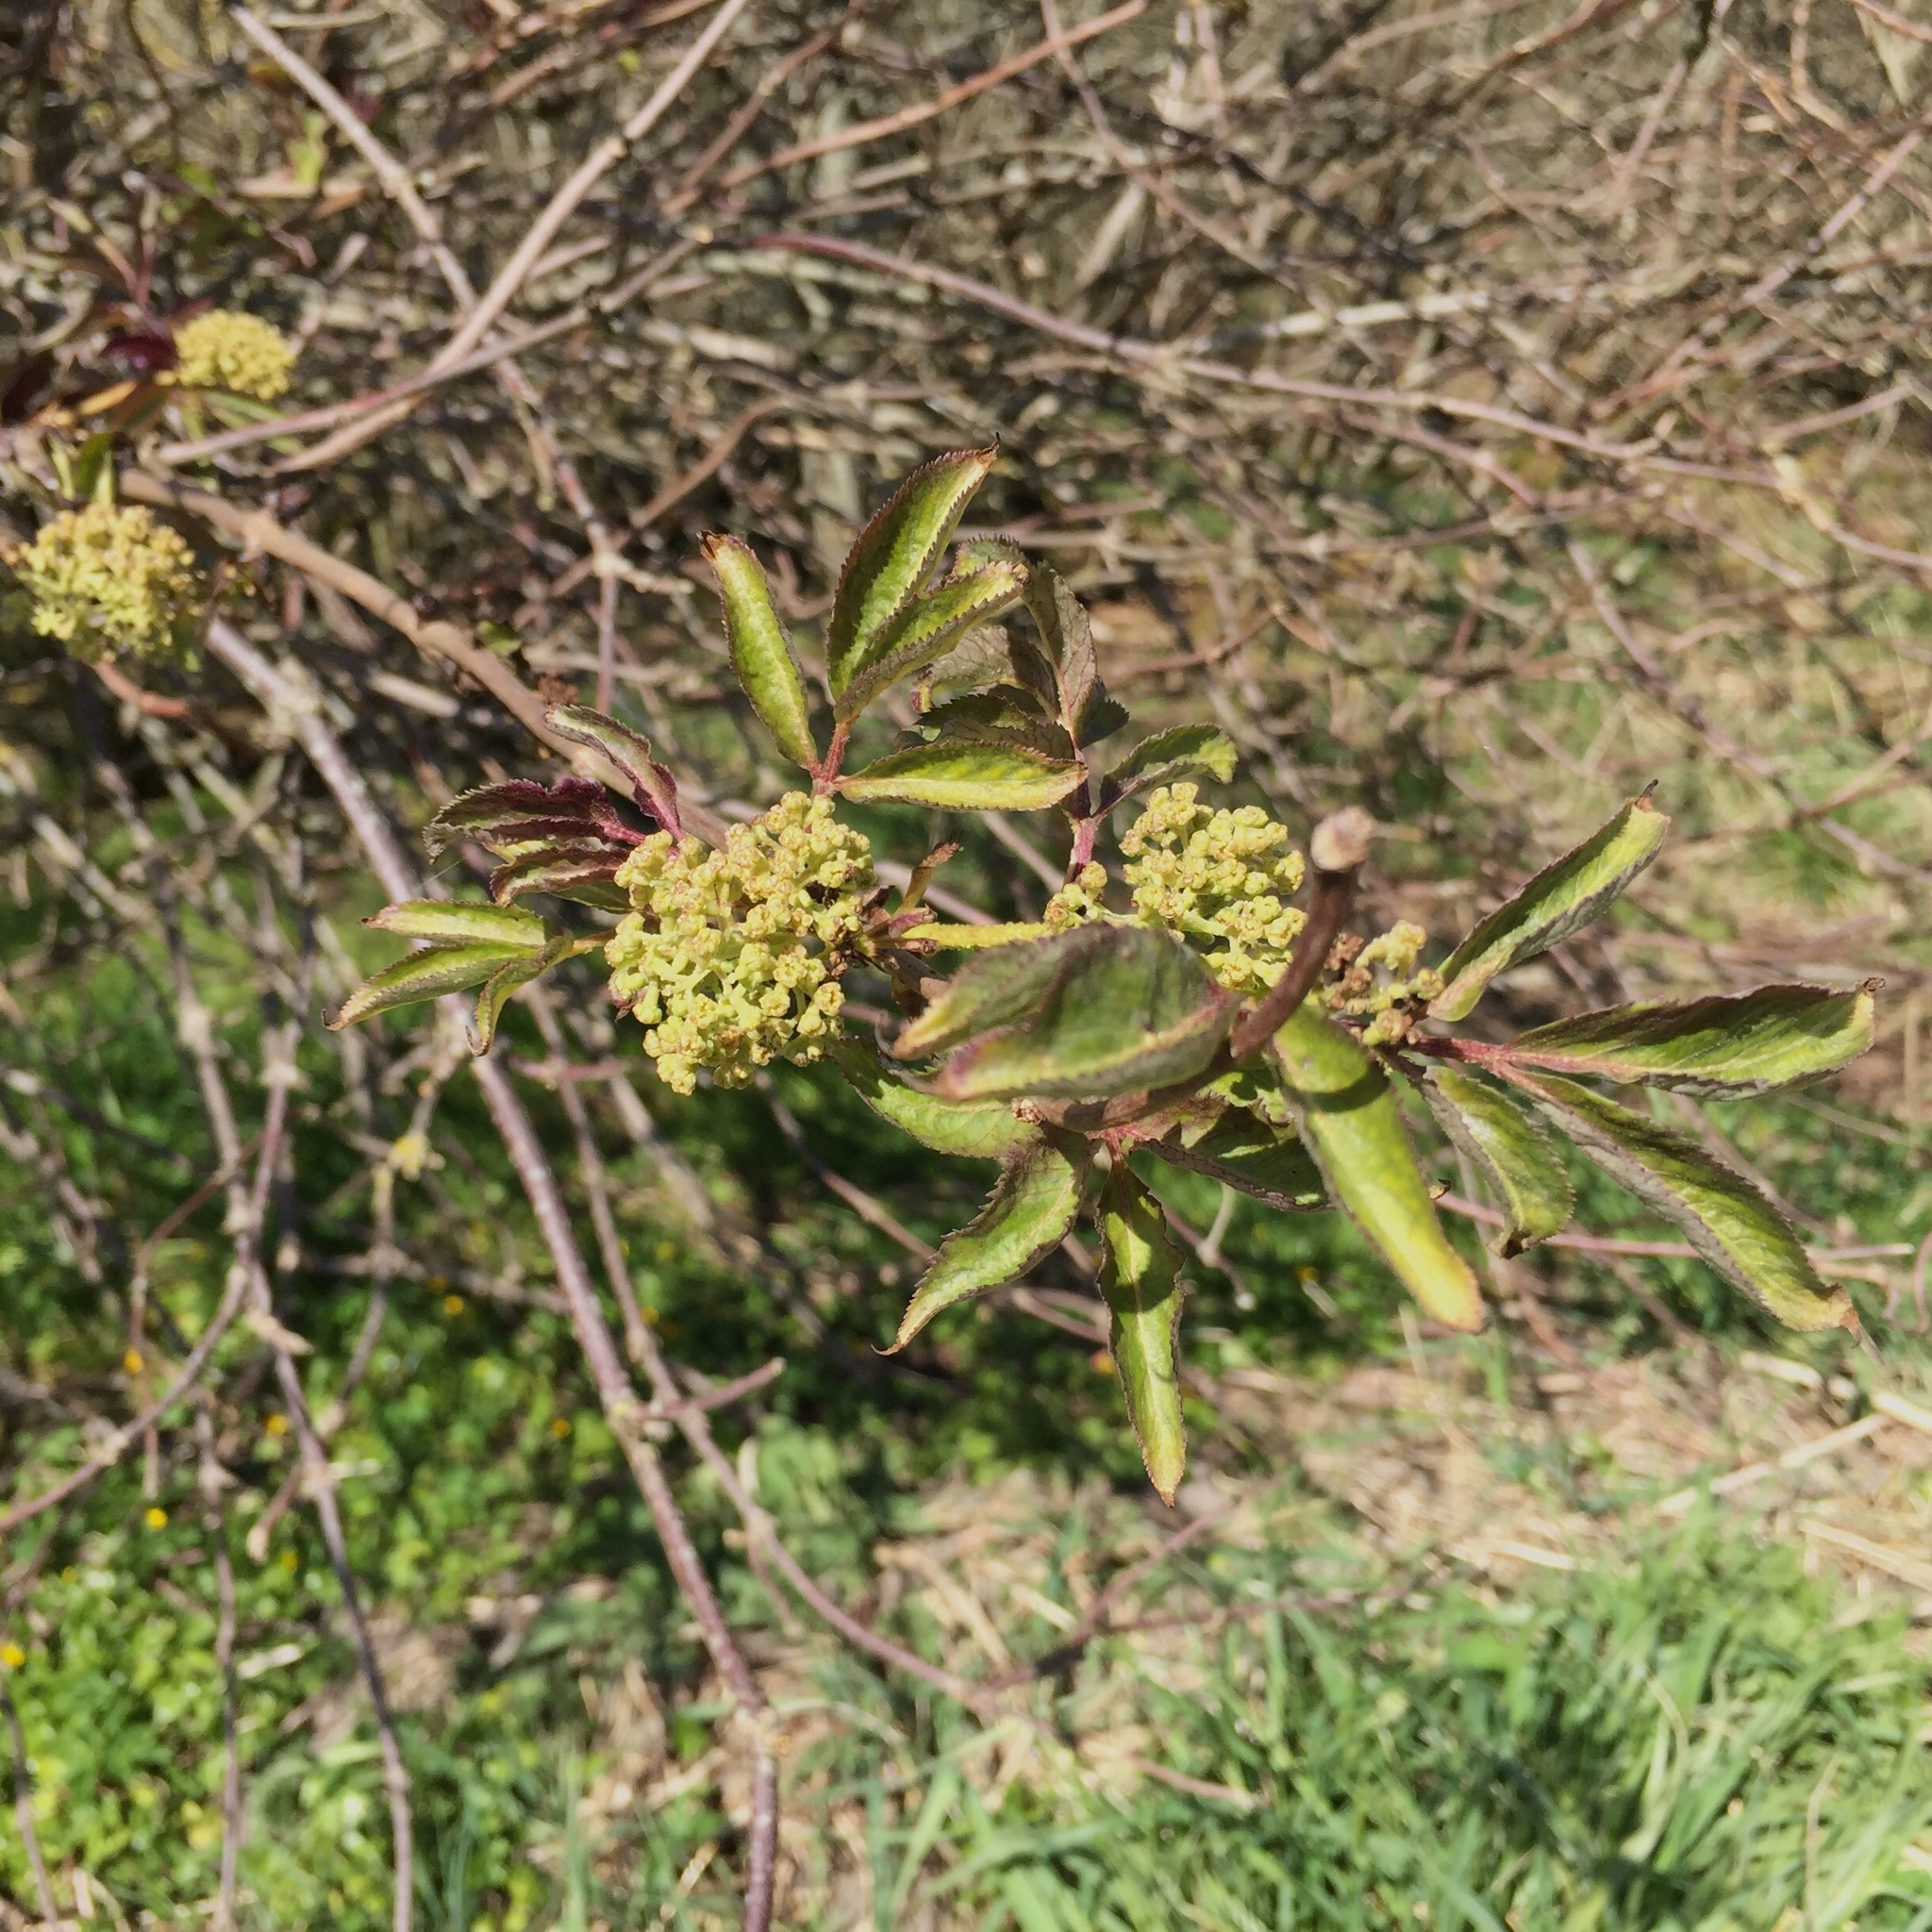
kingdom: Plantae
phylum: Tracheophyta
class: Magnoliopsida
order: Dipsacales
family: Viburnaceae
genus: Sambucus
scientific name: Sambucus racemosa
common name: Red-berried elder
